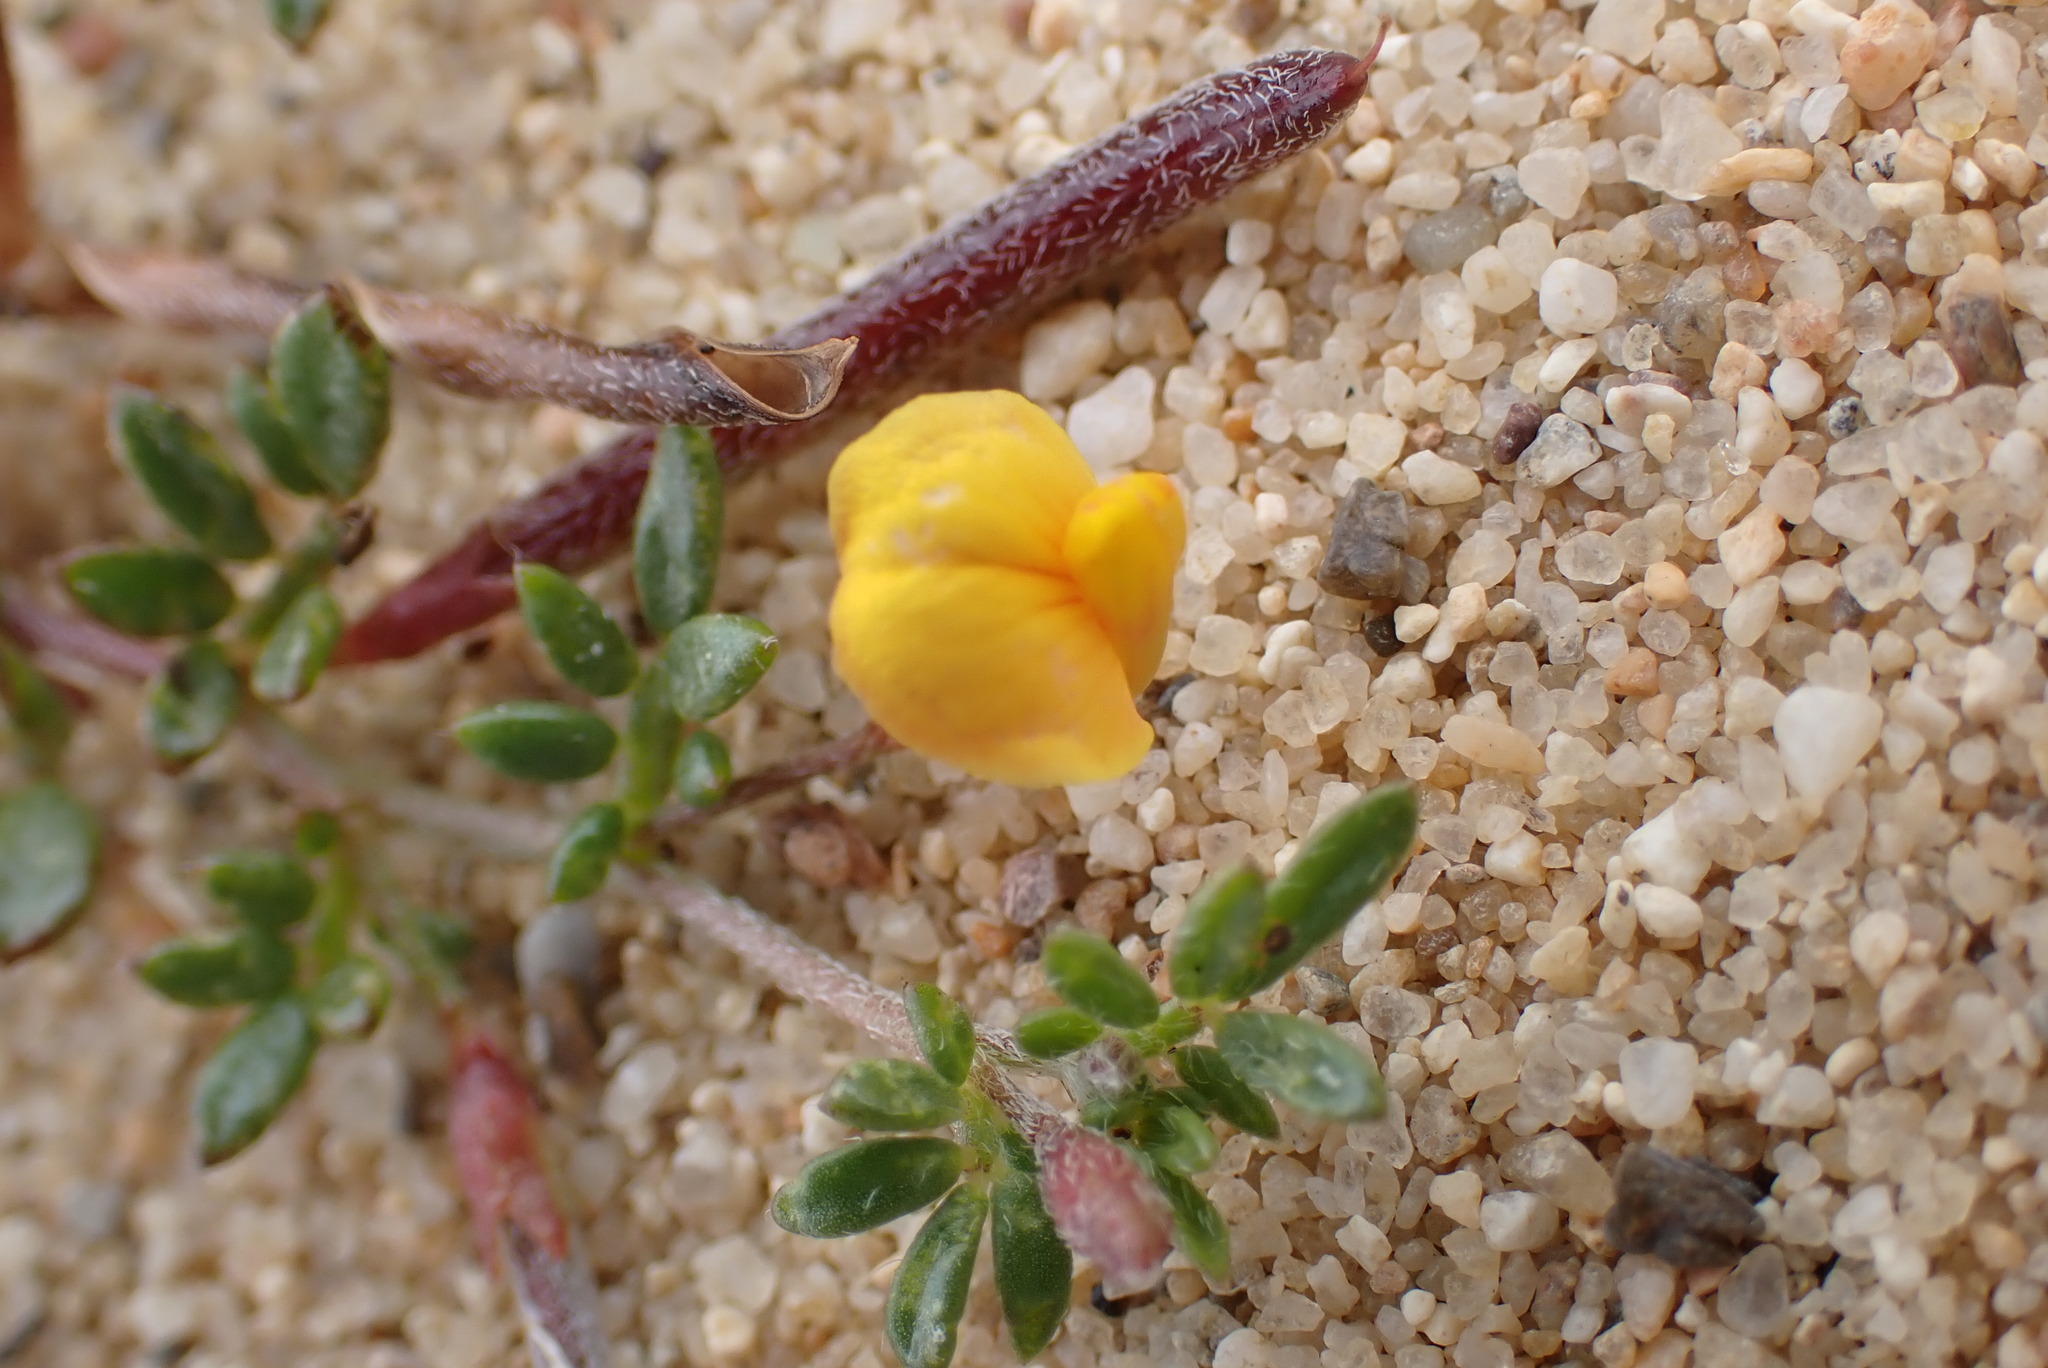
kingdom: Plantae
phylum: Tracheophyta
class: Magnoliopsida
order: Fabales
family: Fabaceae
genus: Acmispon
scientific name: Acmispon strigosus
